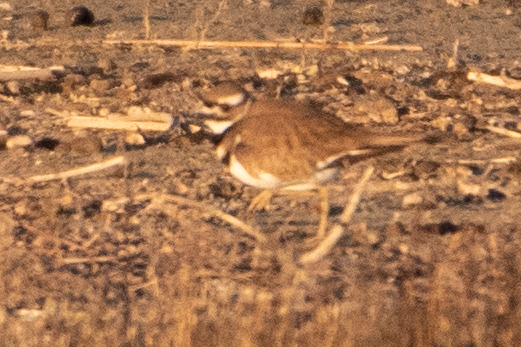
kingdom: Animalia
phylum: Chordata
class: Aves
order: Charadriiformes
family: Charadriidae
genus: Charadrius
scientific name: Charadrius vociferus
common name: Killdeer
